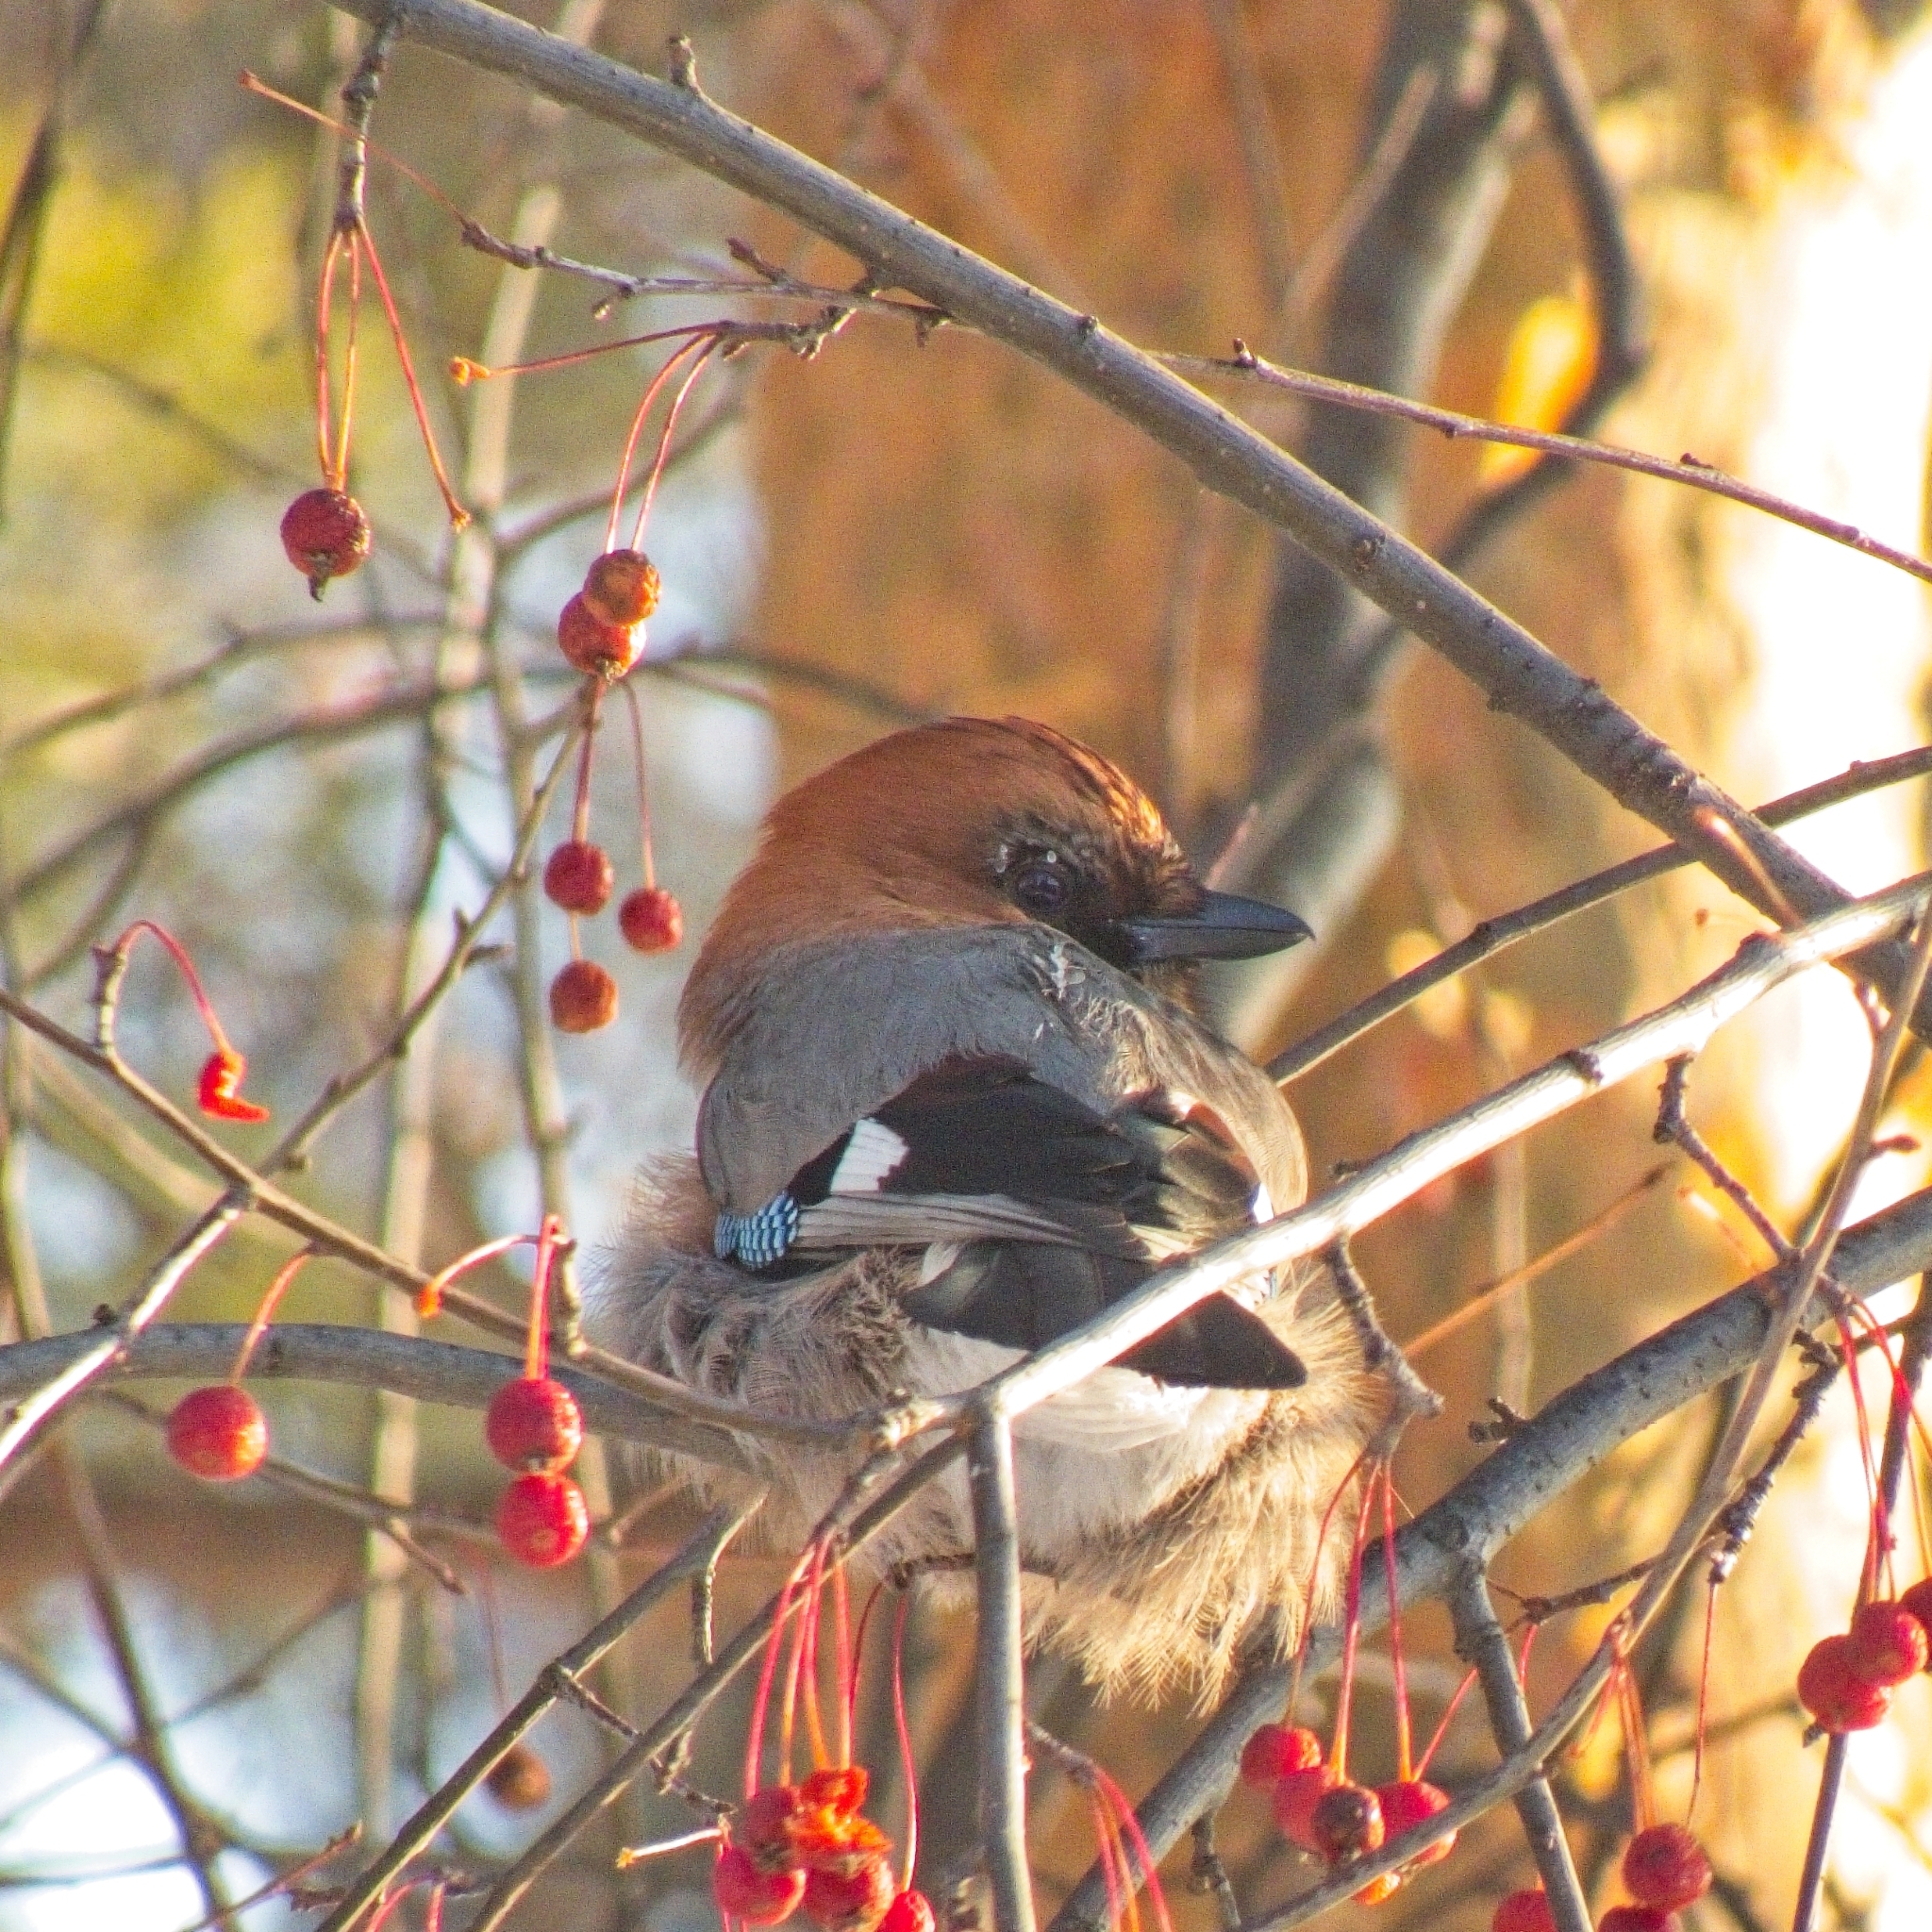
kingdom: Animalia
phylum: Chordata
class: Aves
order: Passeriformes
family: Corvidae
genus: Garrulus
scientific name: Garrulus glandarius
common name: Eurasian jay
